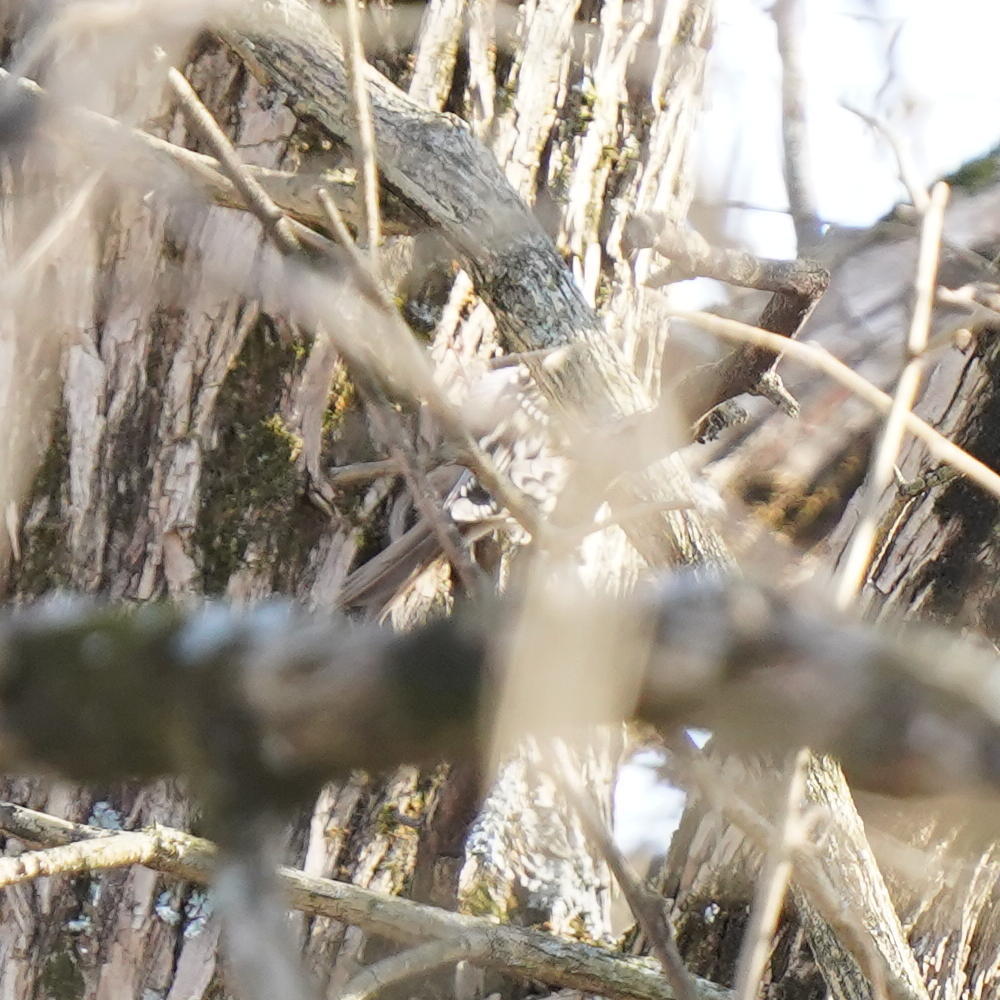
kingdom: Animalia
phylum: Chordata
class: Aves
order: Passeriformes
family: Certhiidae
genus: Certhia
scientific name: Certhia americana
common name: Brown creeper
